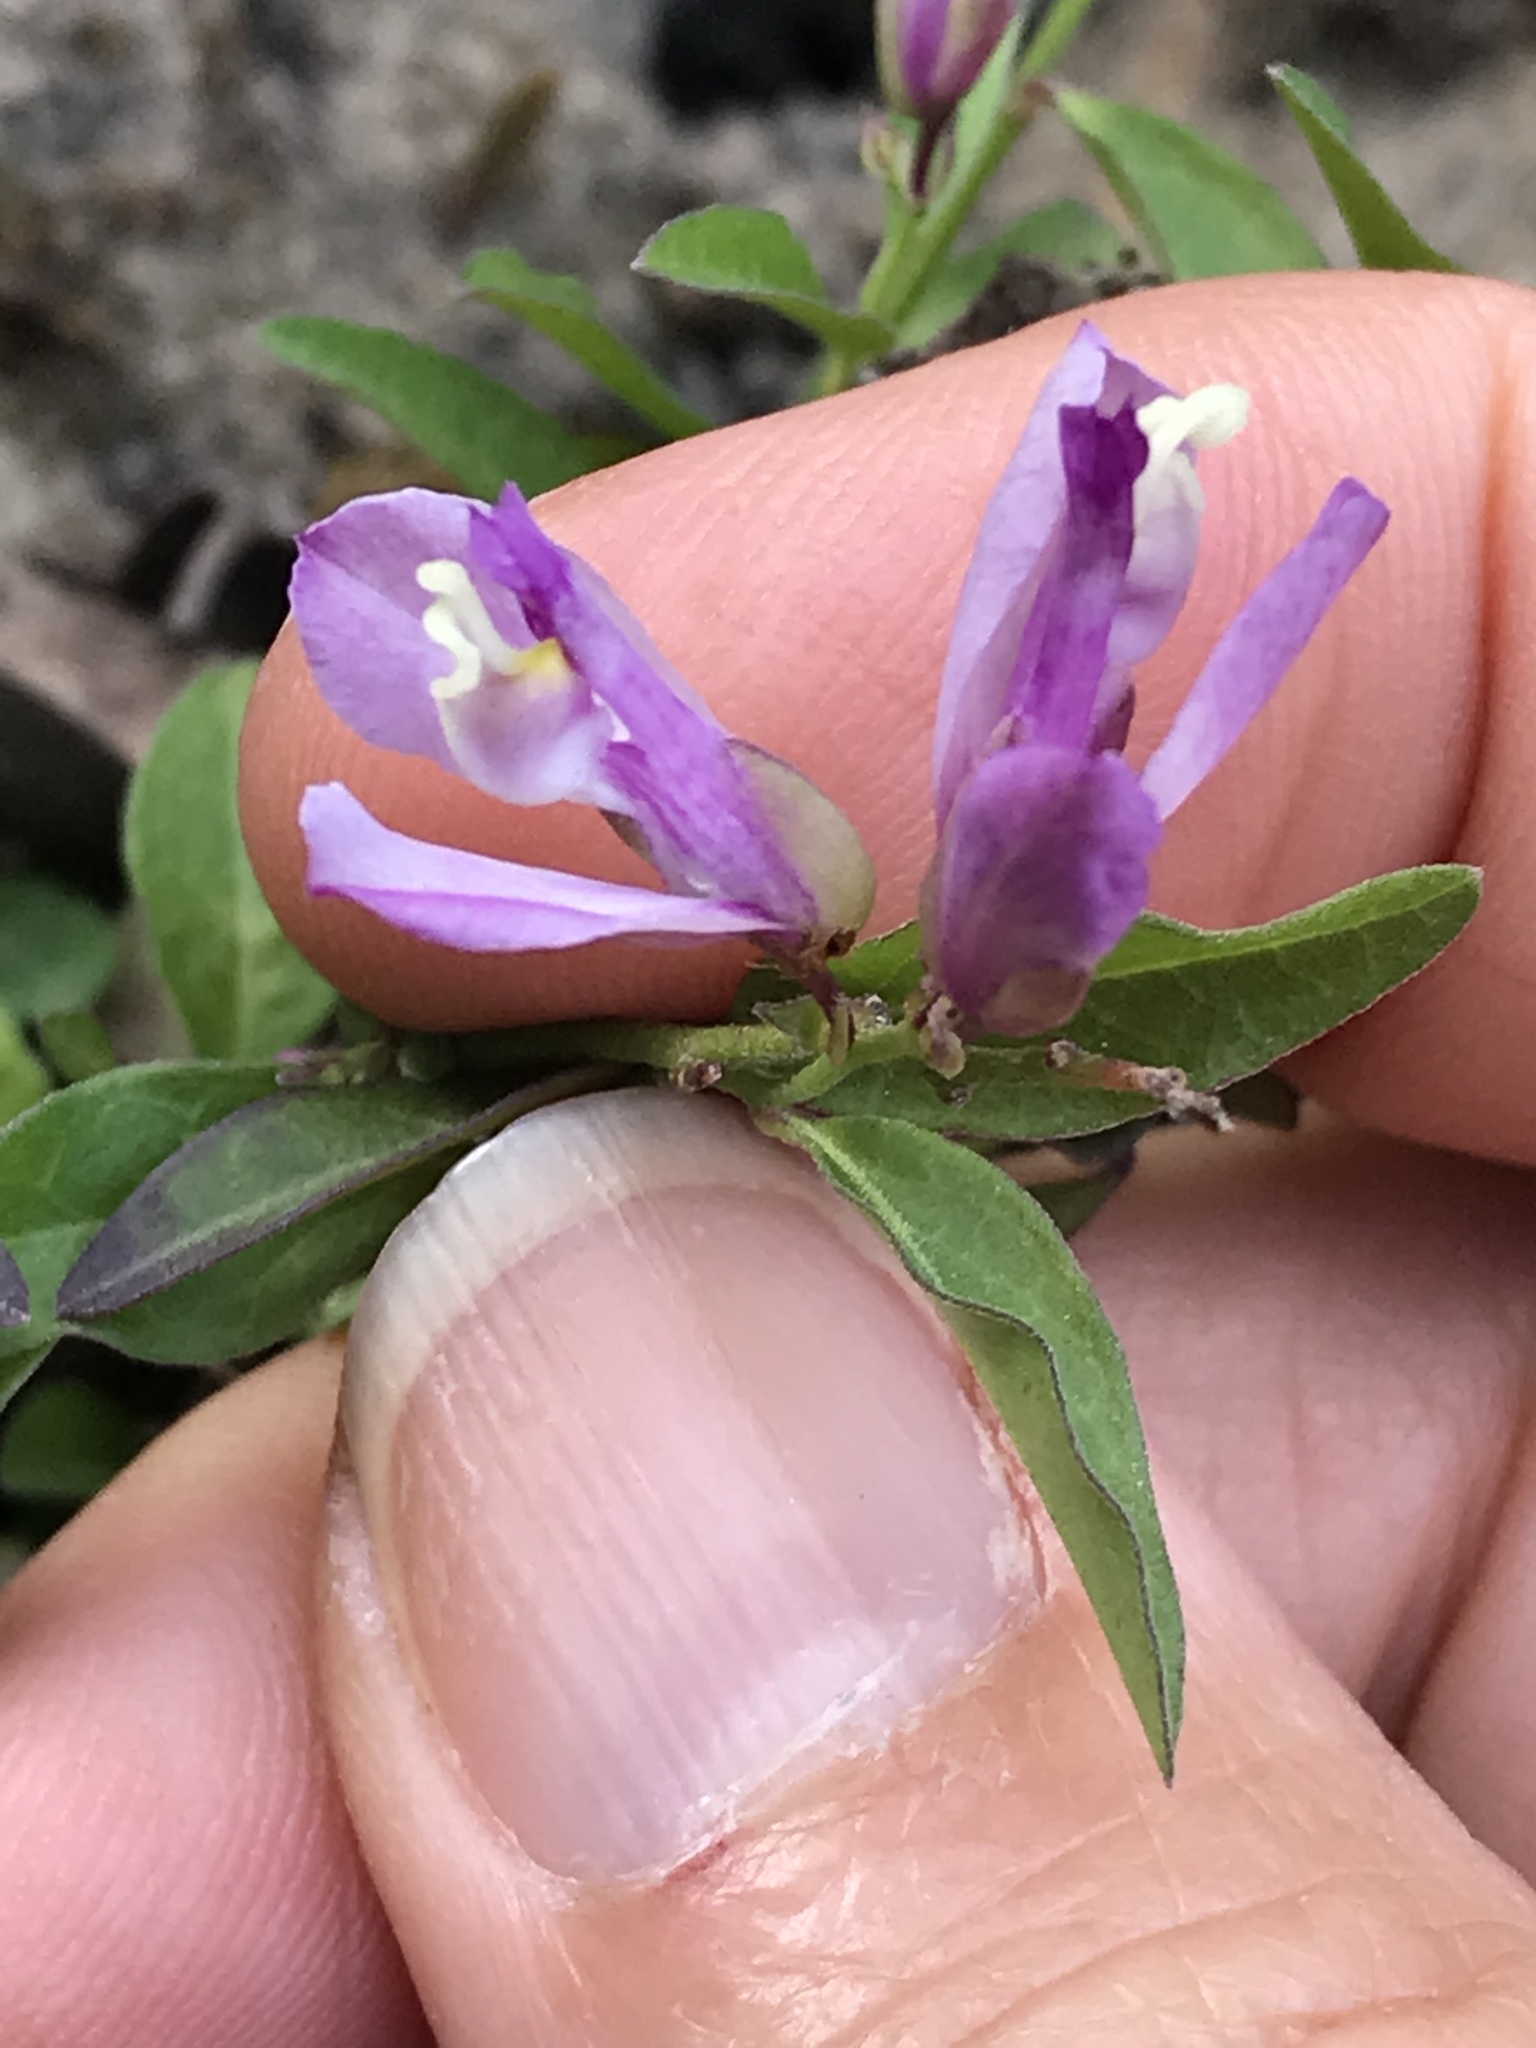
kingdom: Plantae
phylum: Tracheophyta
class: Magnoliopsida
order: Fabales
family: Polygalaceae
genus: Rhinotropis
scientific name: Rhinotropis californica
